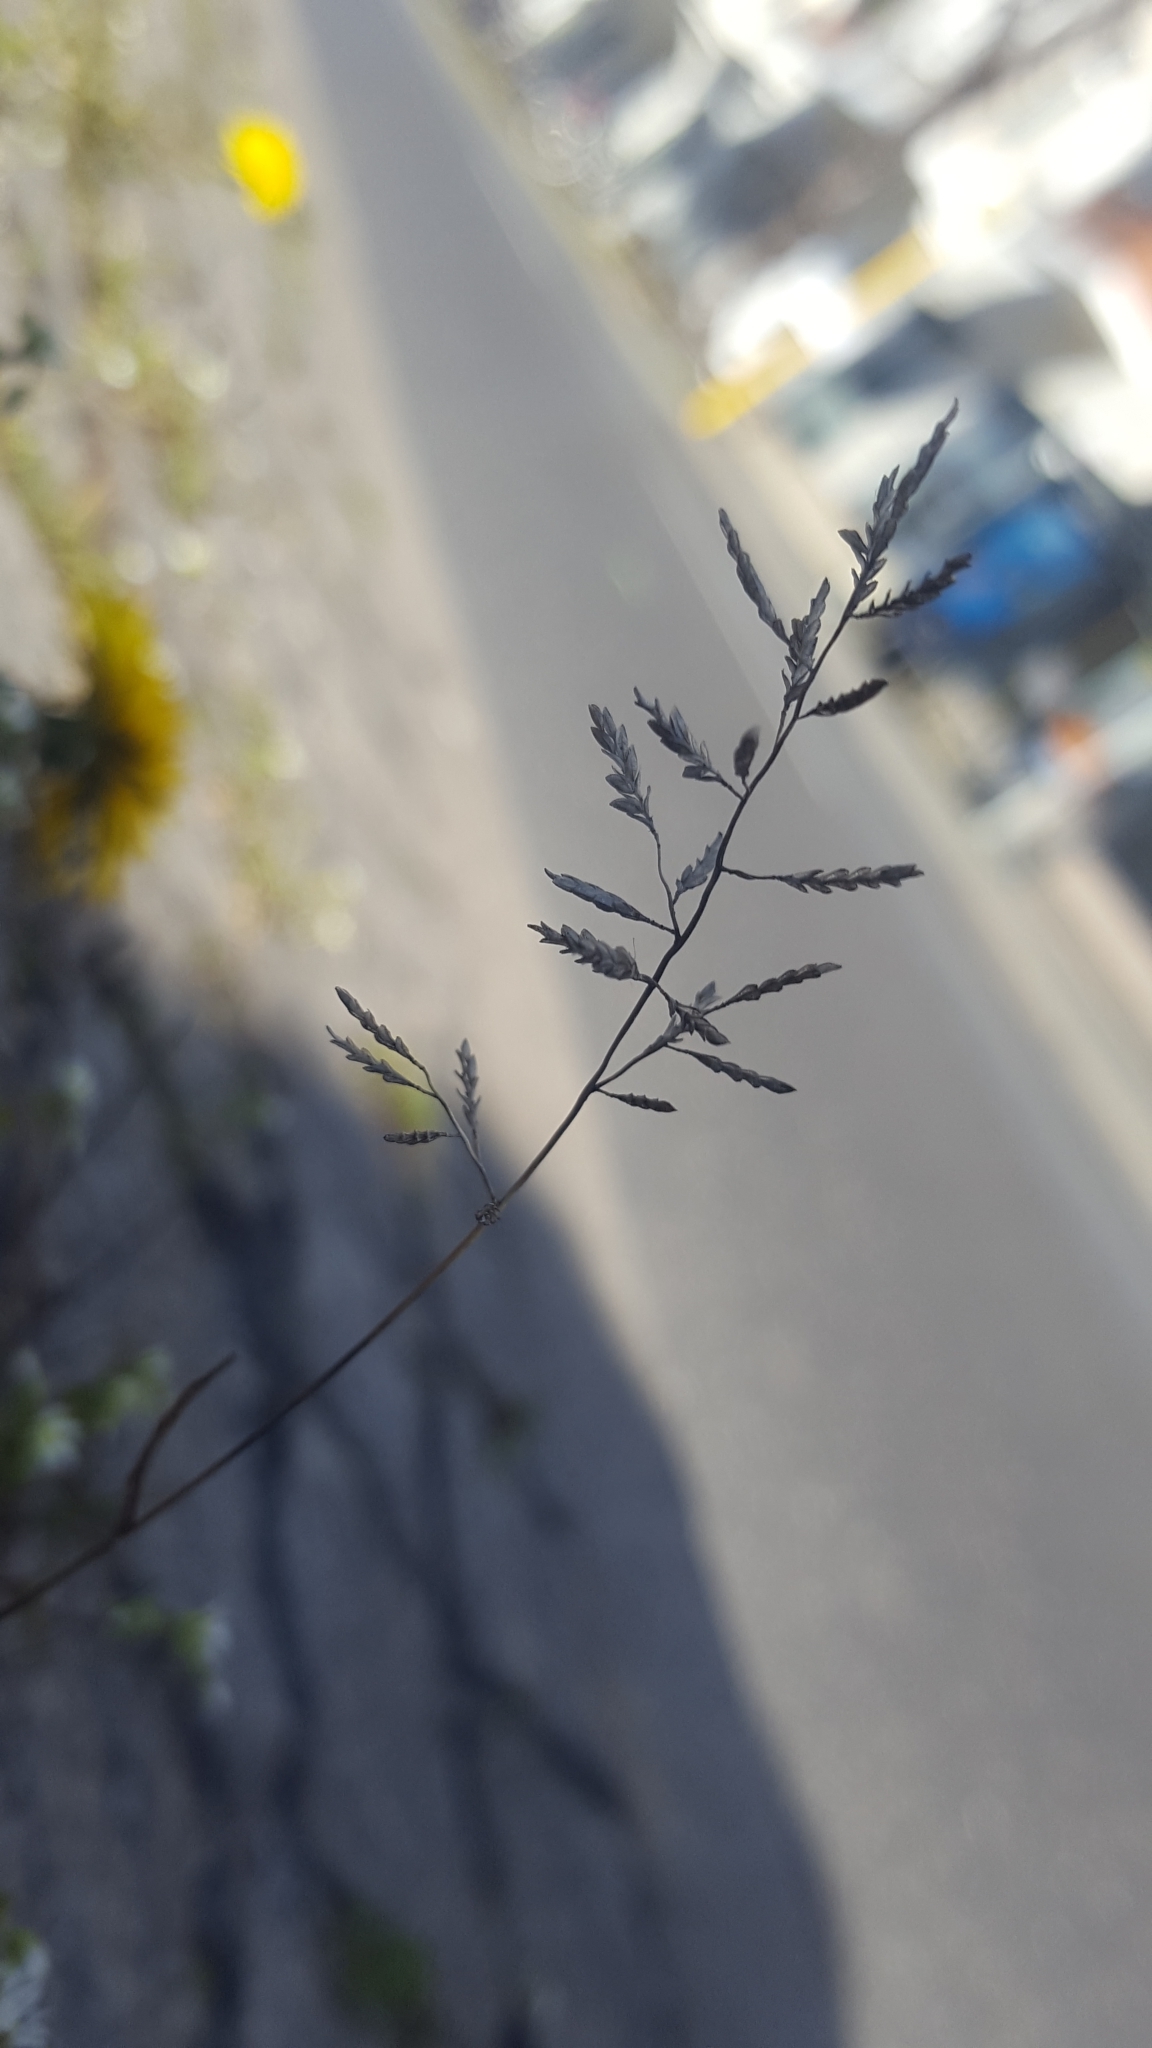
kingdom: Plantae
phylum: Tracheophyta
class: Liliopsida
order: Poales
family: Poaceae
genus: Eragrostis
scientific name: Eragrostis minor
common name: Small love-grass
